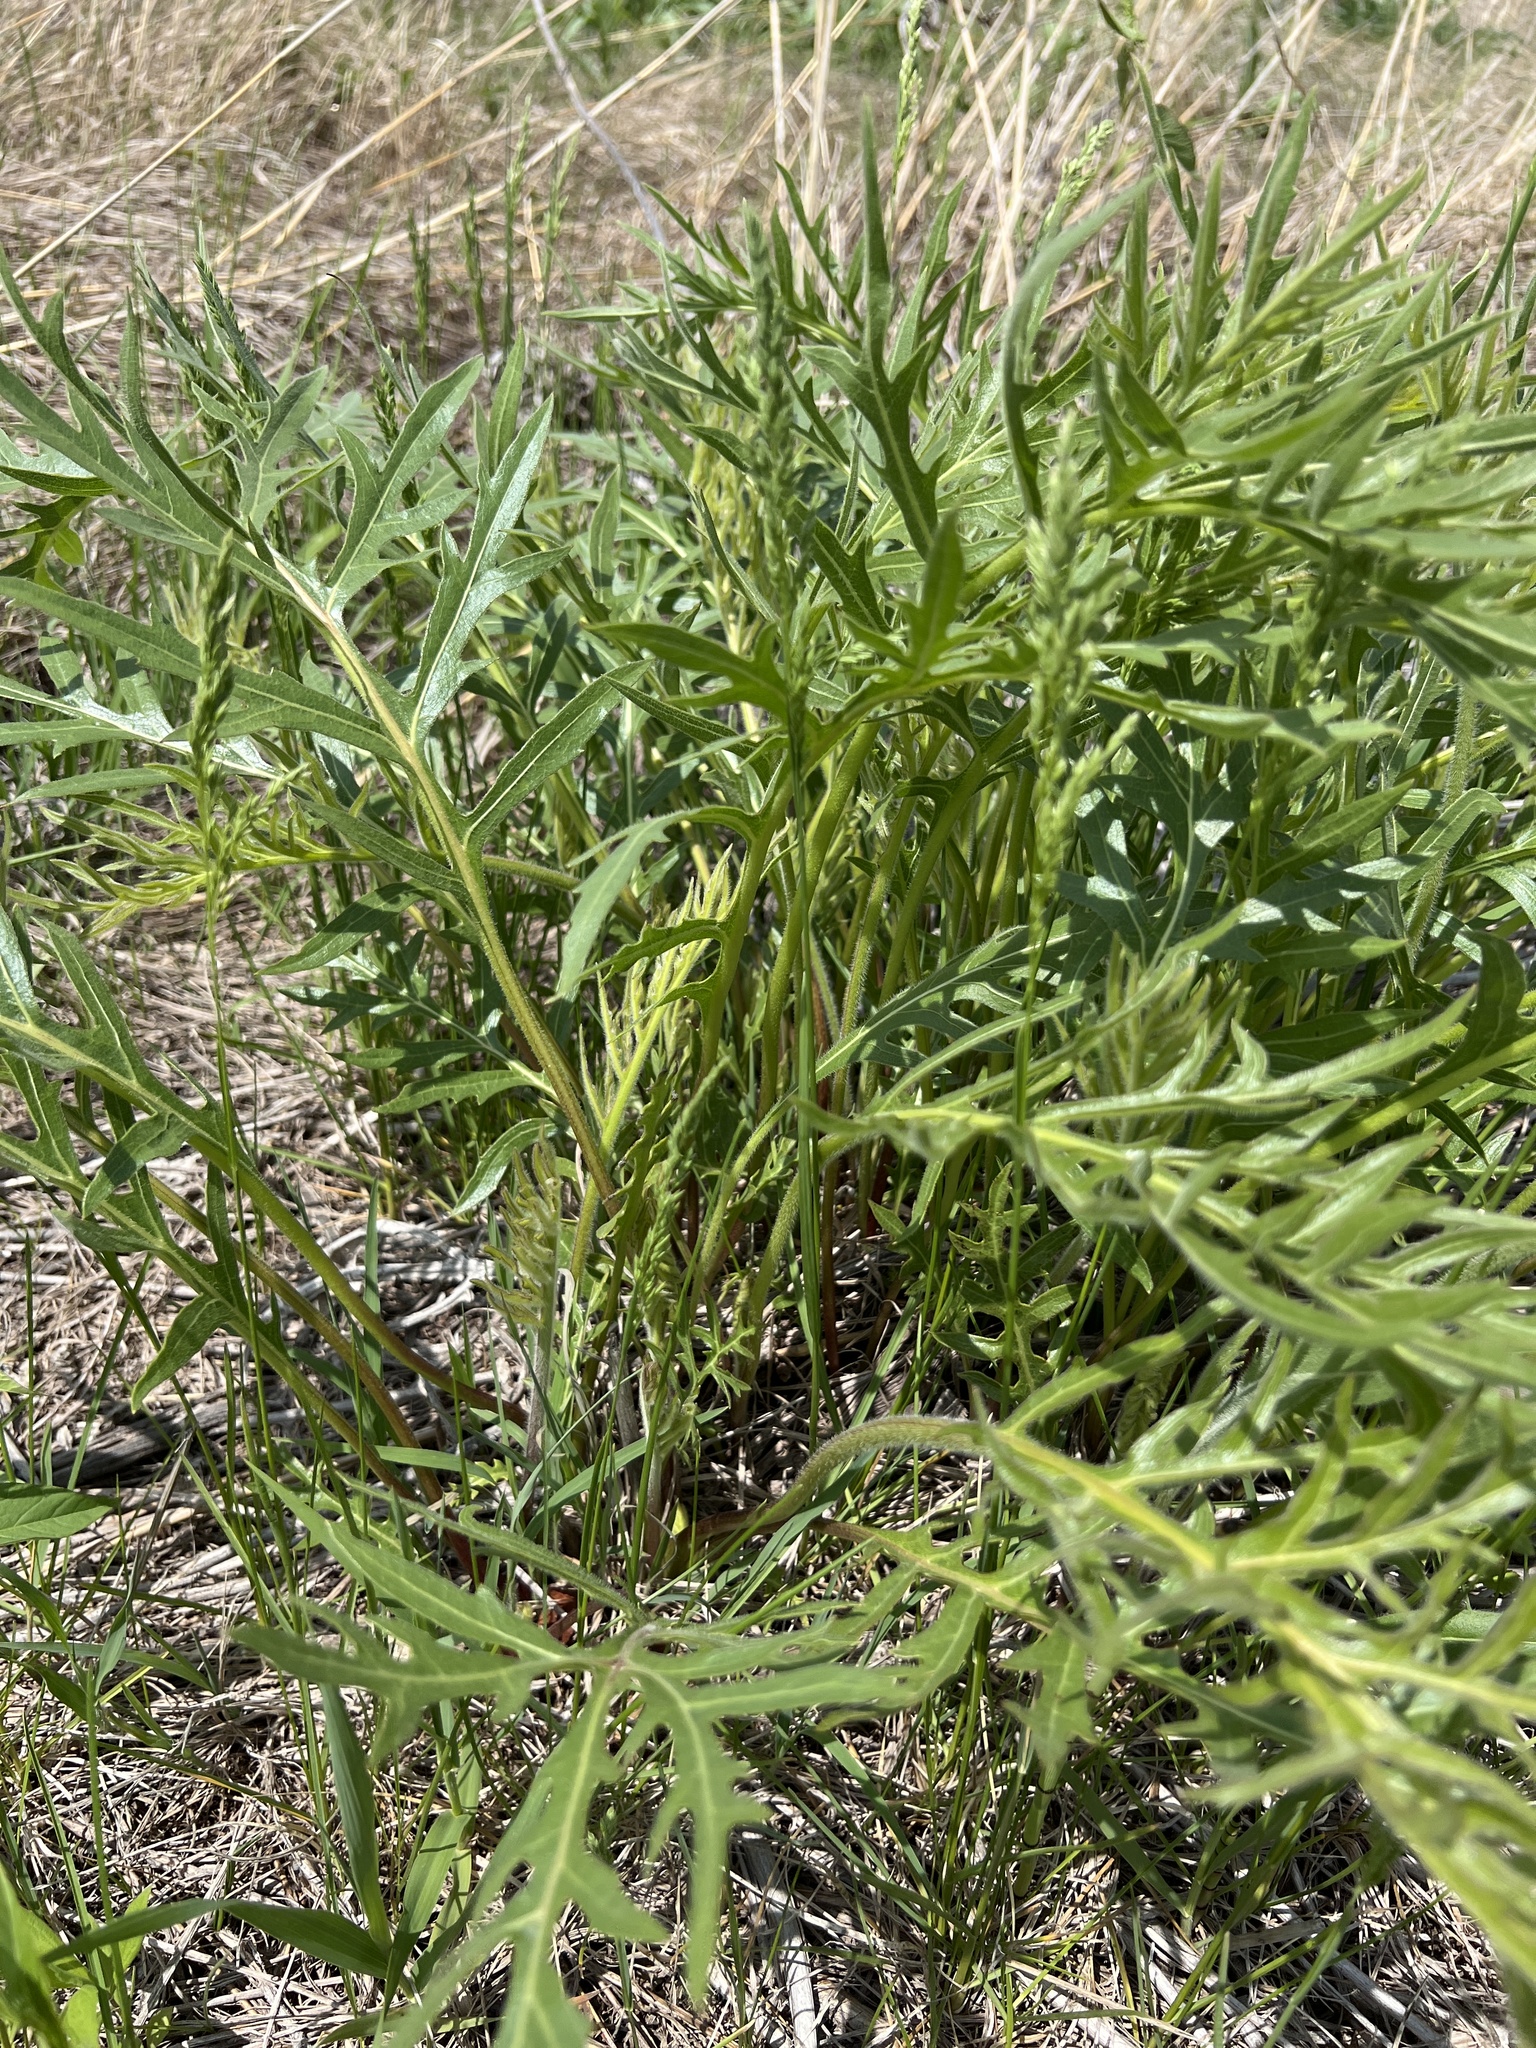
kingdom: Plantae
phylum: Tracheophyta
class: Magnoliopsida
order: Asterales
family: Asteraceae
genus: Silphium
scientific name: Silphium laciniatum
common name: Polarplant
